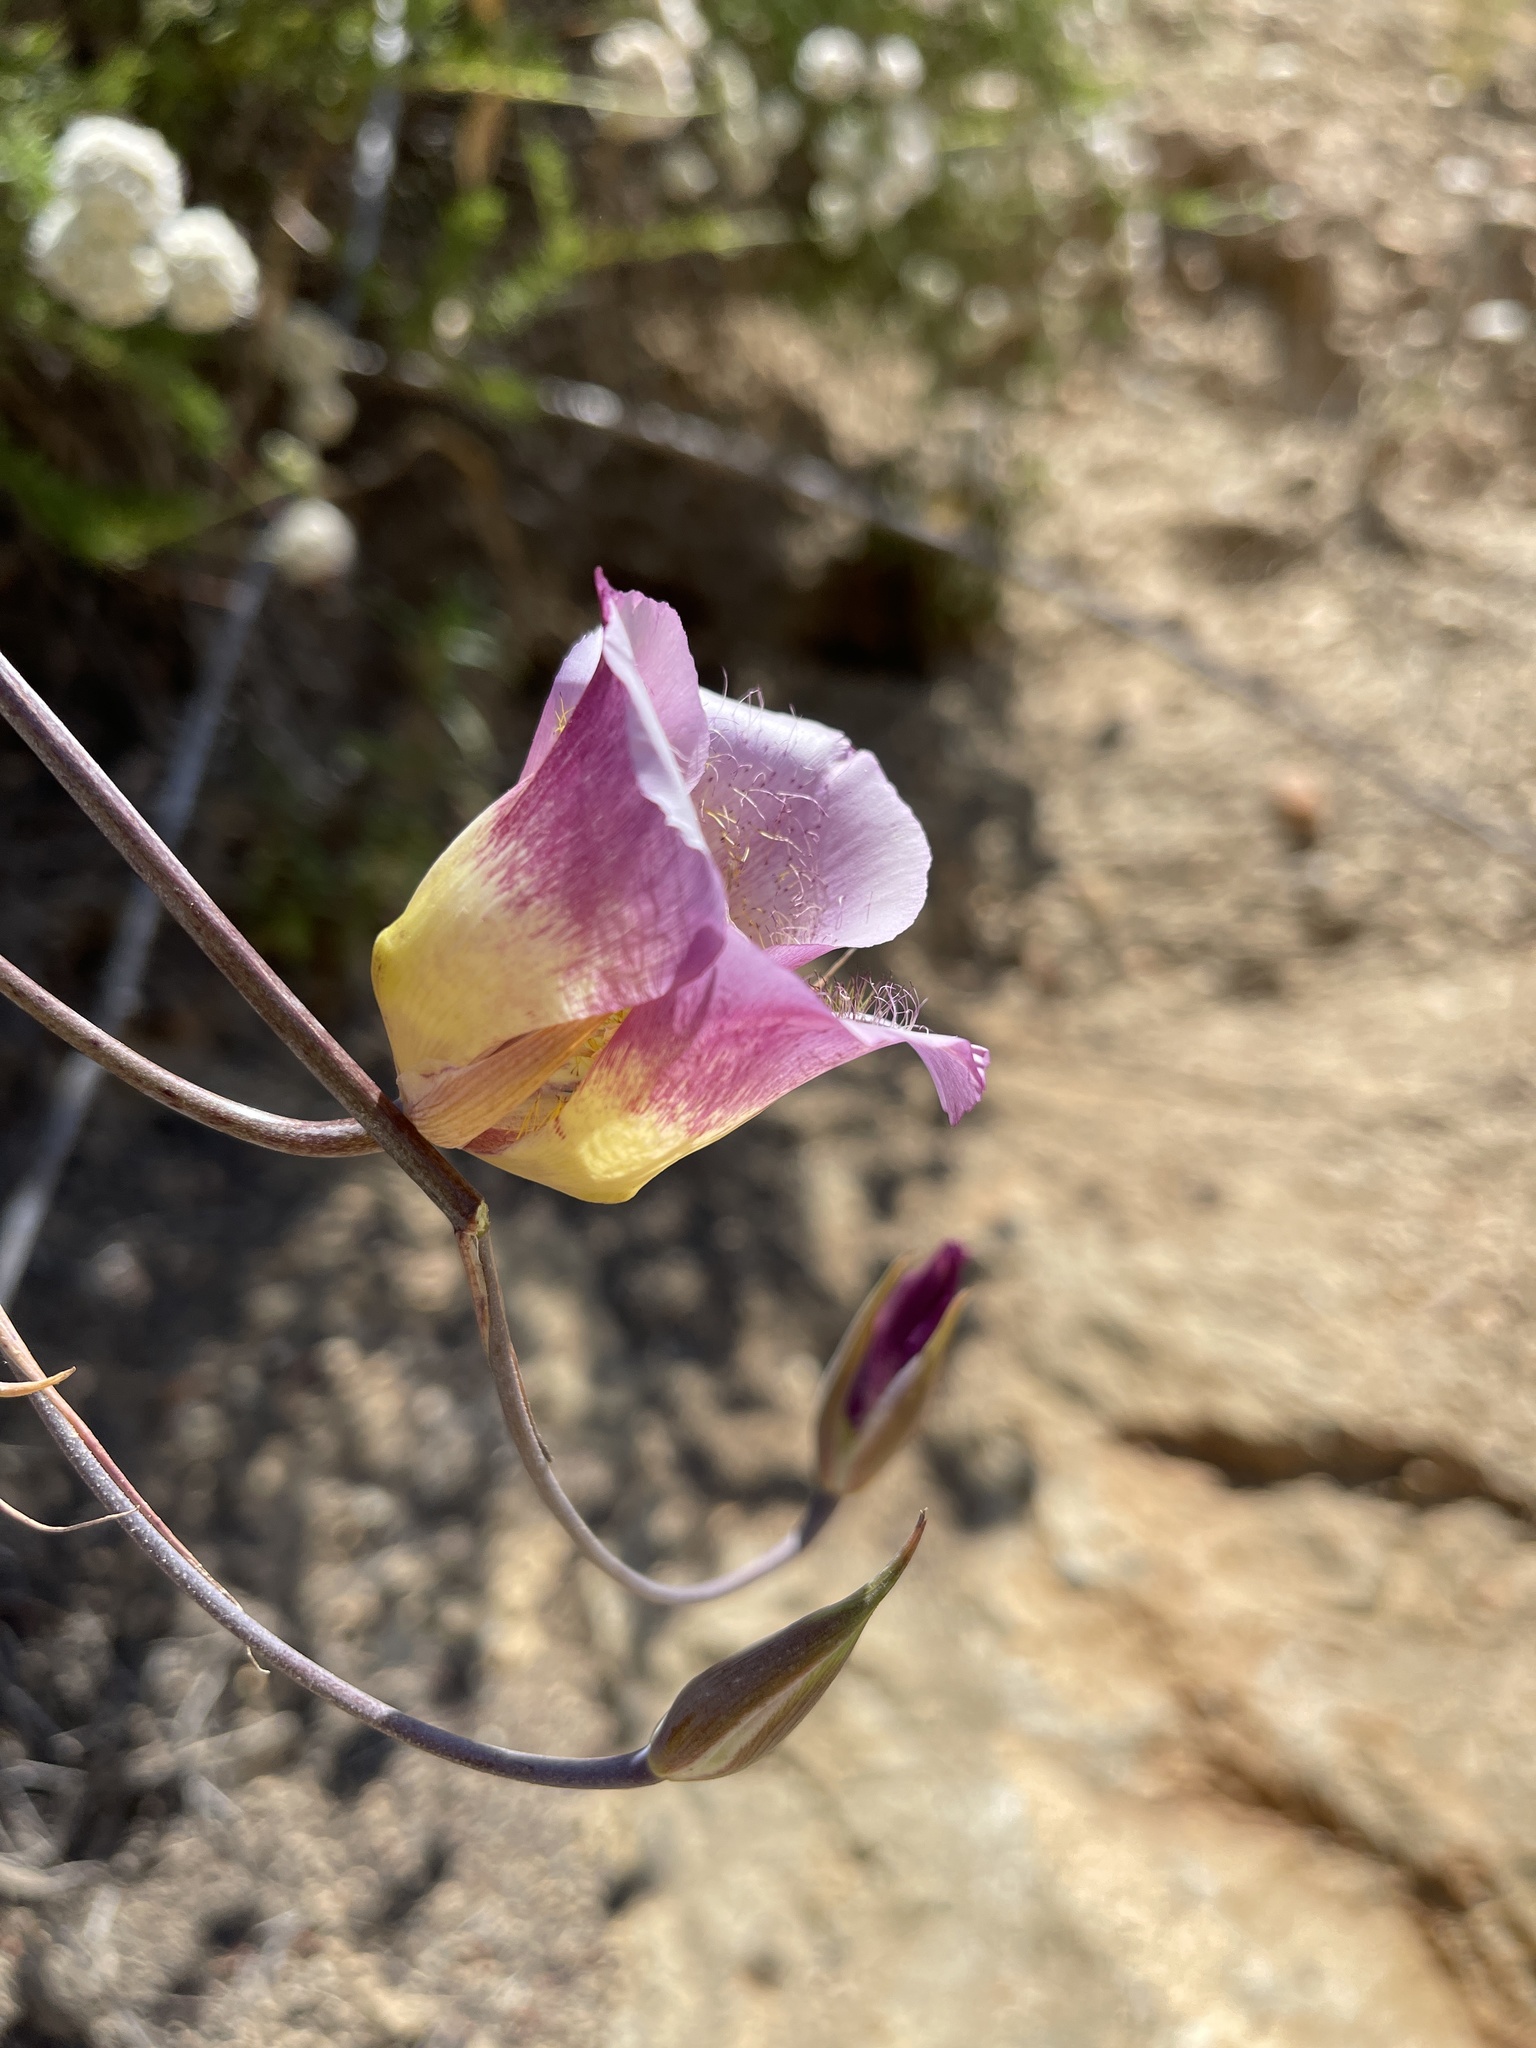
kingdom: Plantae
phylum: Tracheophyta
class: Liliopsida
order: Liliales
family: Liliaceae
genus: Calochortus
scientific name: Calochortus plummerae
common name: Plummer's mariposa-lily
